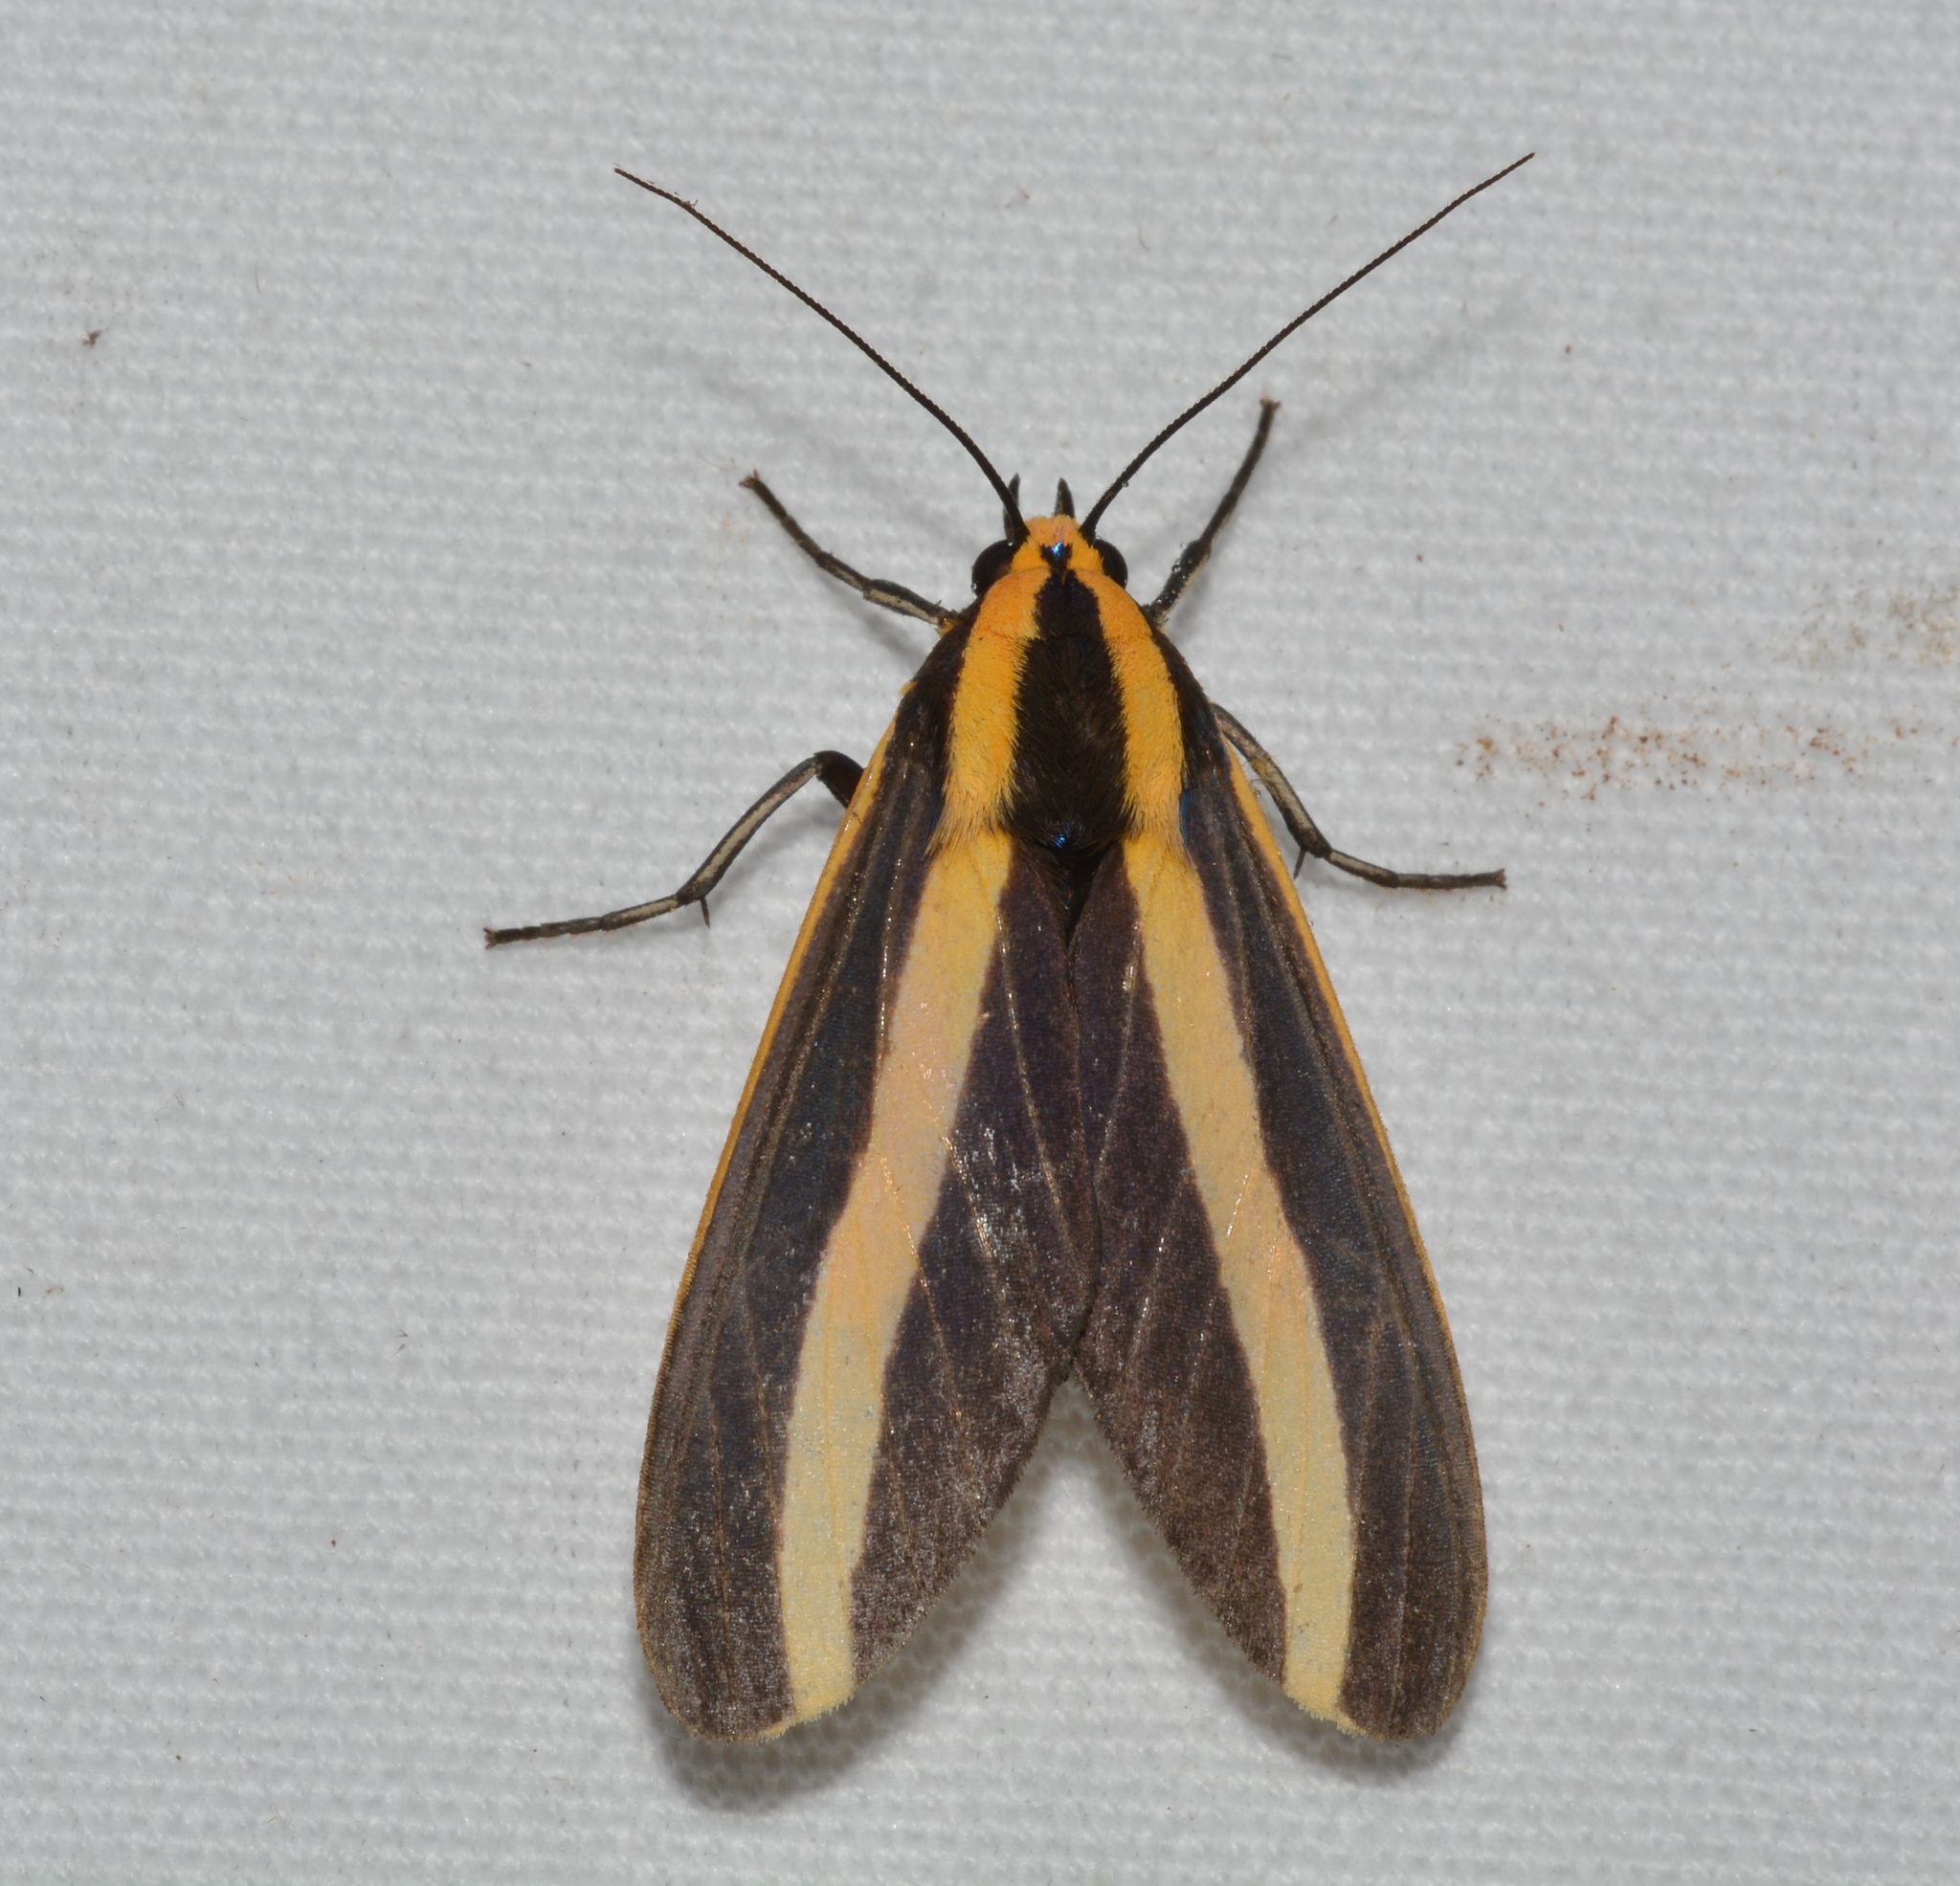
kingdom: Animalia
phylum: Arthropoda
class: Insecta
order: Lepidoptera
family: Erebidae
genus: Ormetica
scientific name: Ormetica ataenia
